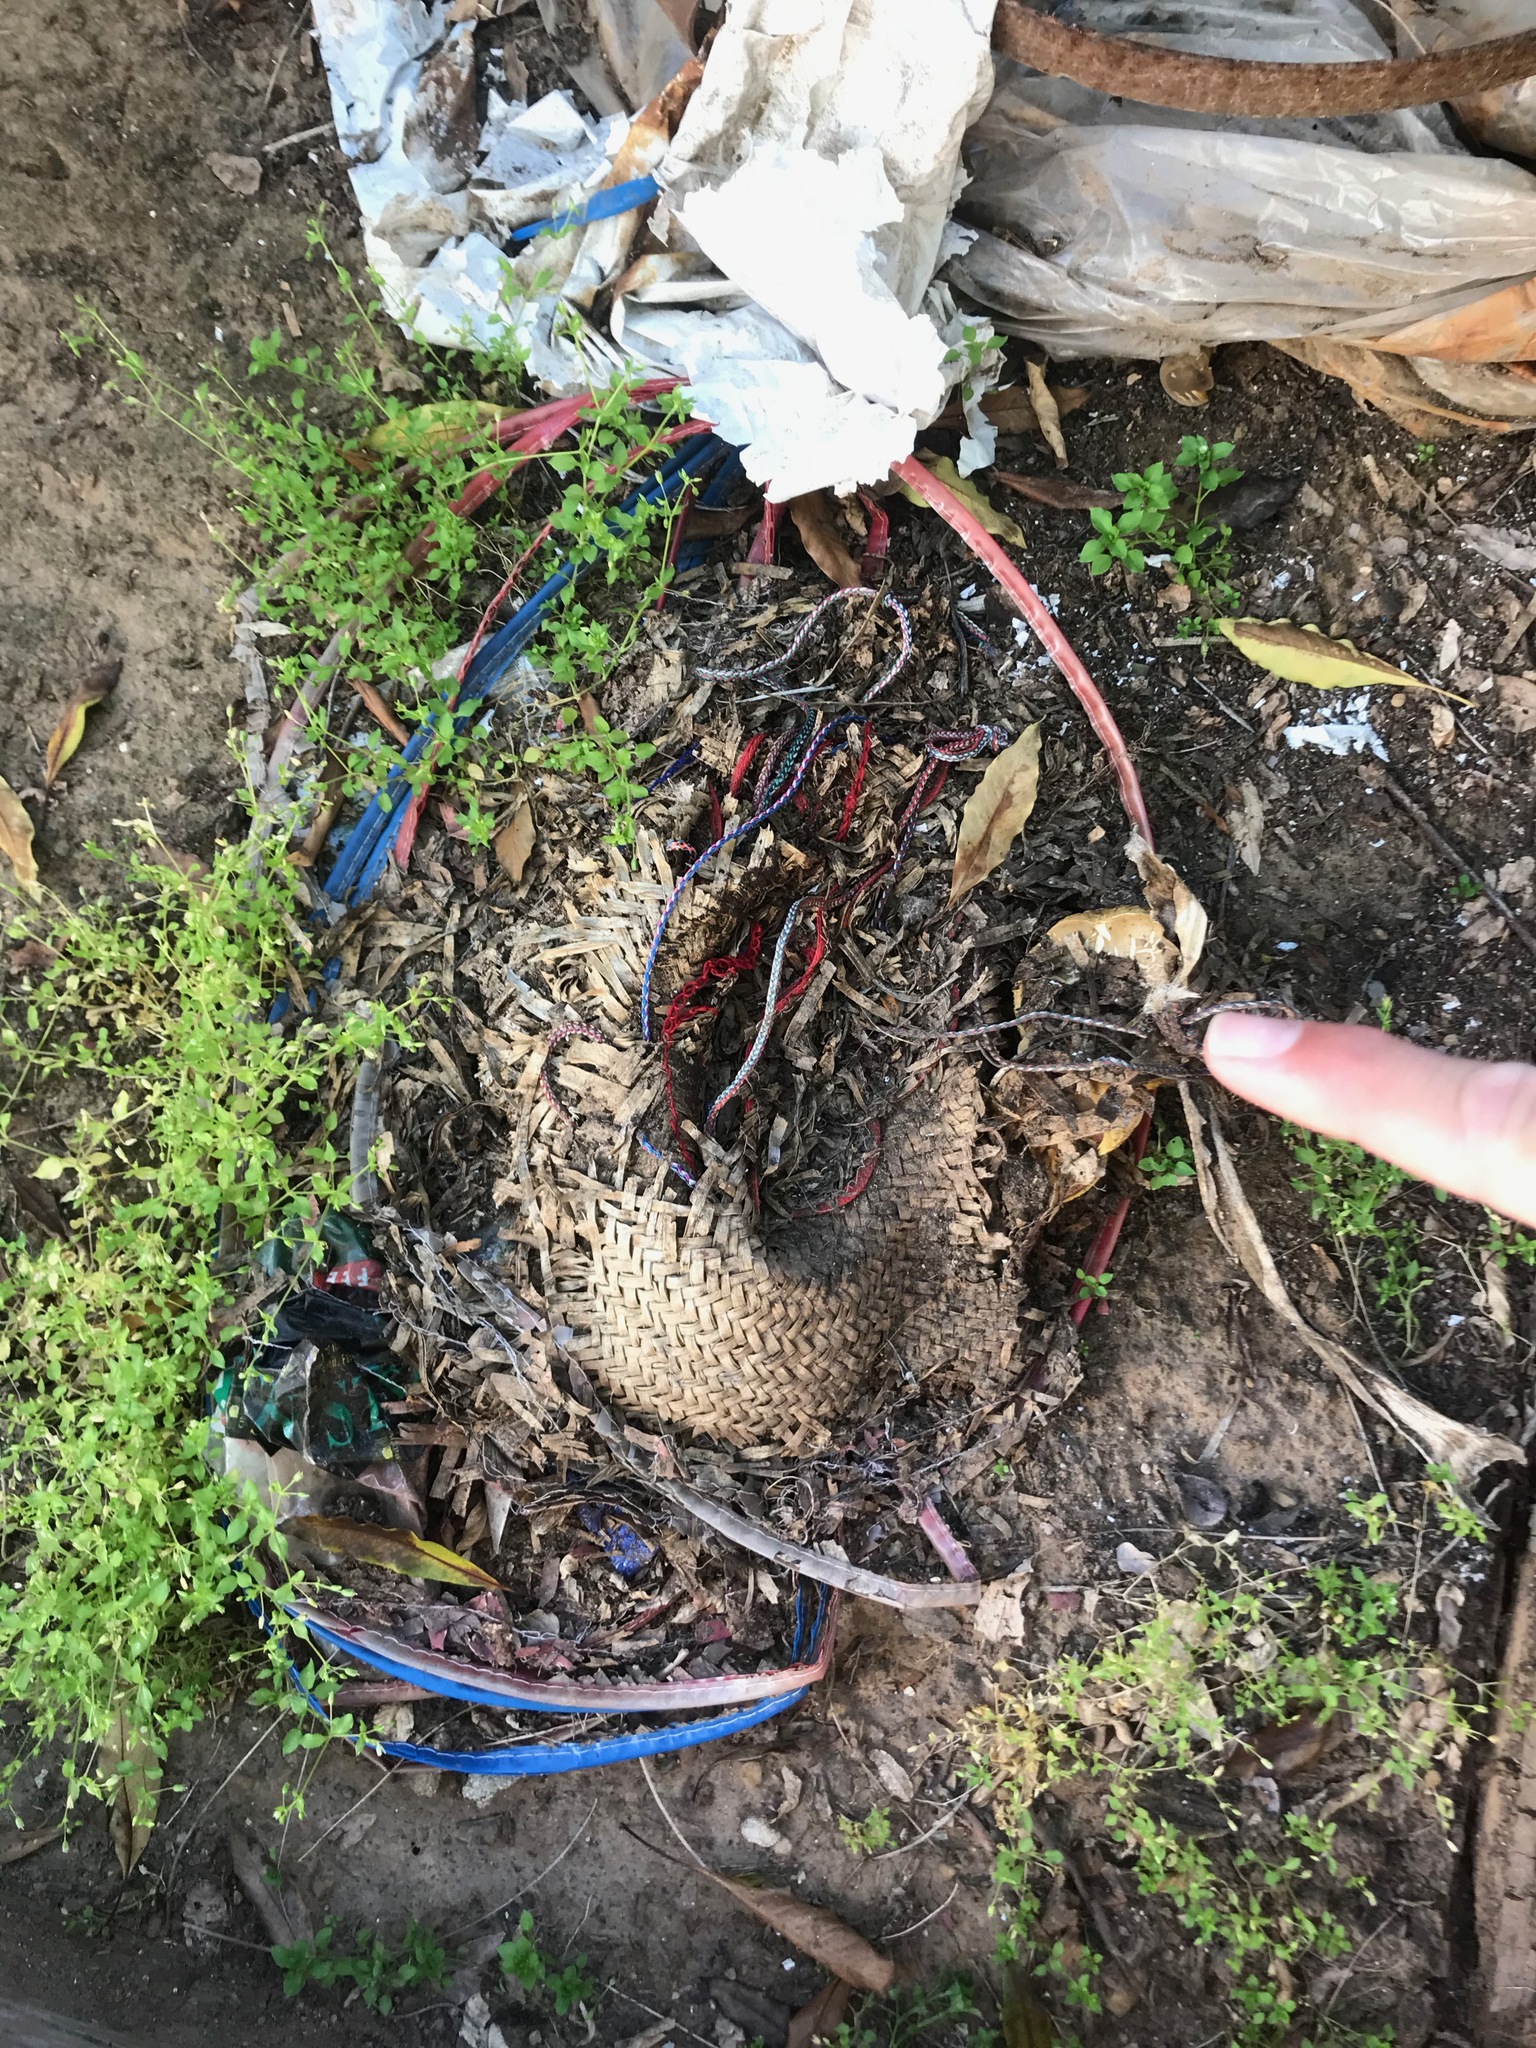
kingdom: Fungi
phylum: Basidiomycota
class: Agaricomycetes
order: Boletales
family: Boletaceae
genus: Xerocomellus
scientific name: Xerocomellus dryophilus
